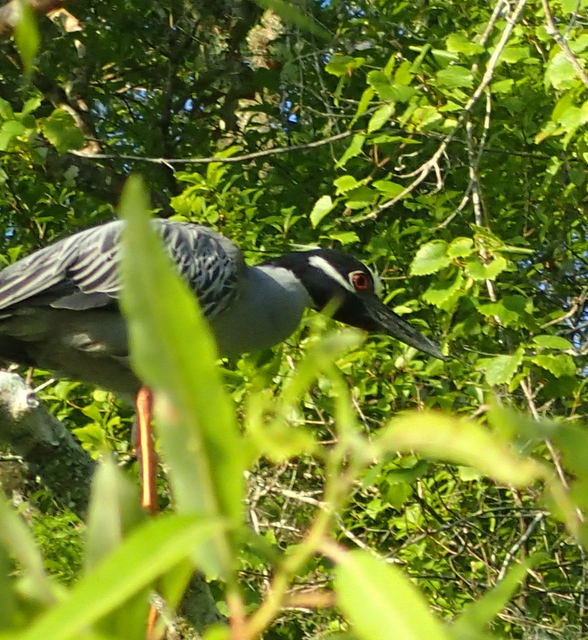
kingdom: Animalia
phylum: Chordata
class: Aves
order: Pelecaniformes
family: Ardeidae
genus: Nyctanassa
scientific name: Nyctanassa violacea
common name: Yellow-crowned night heron
